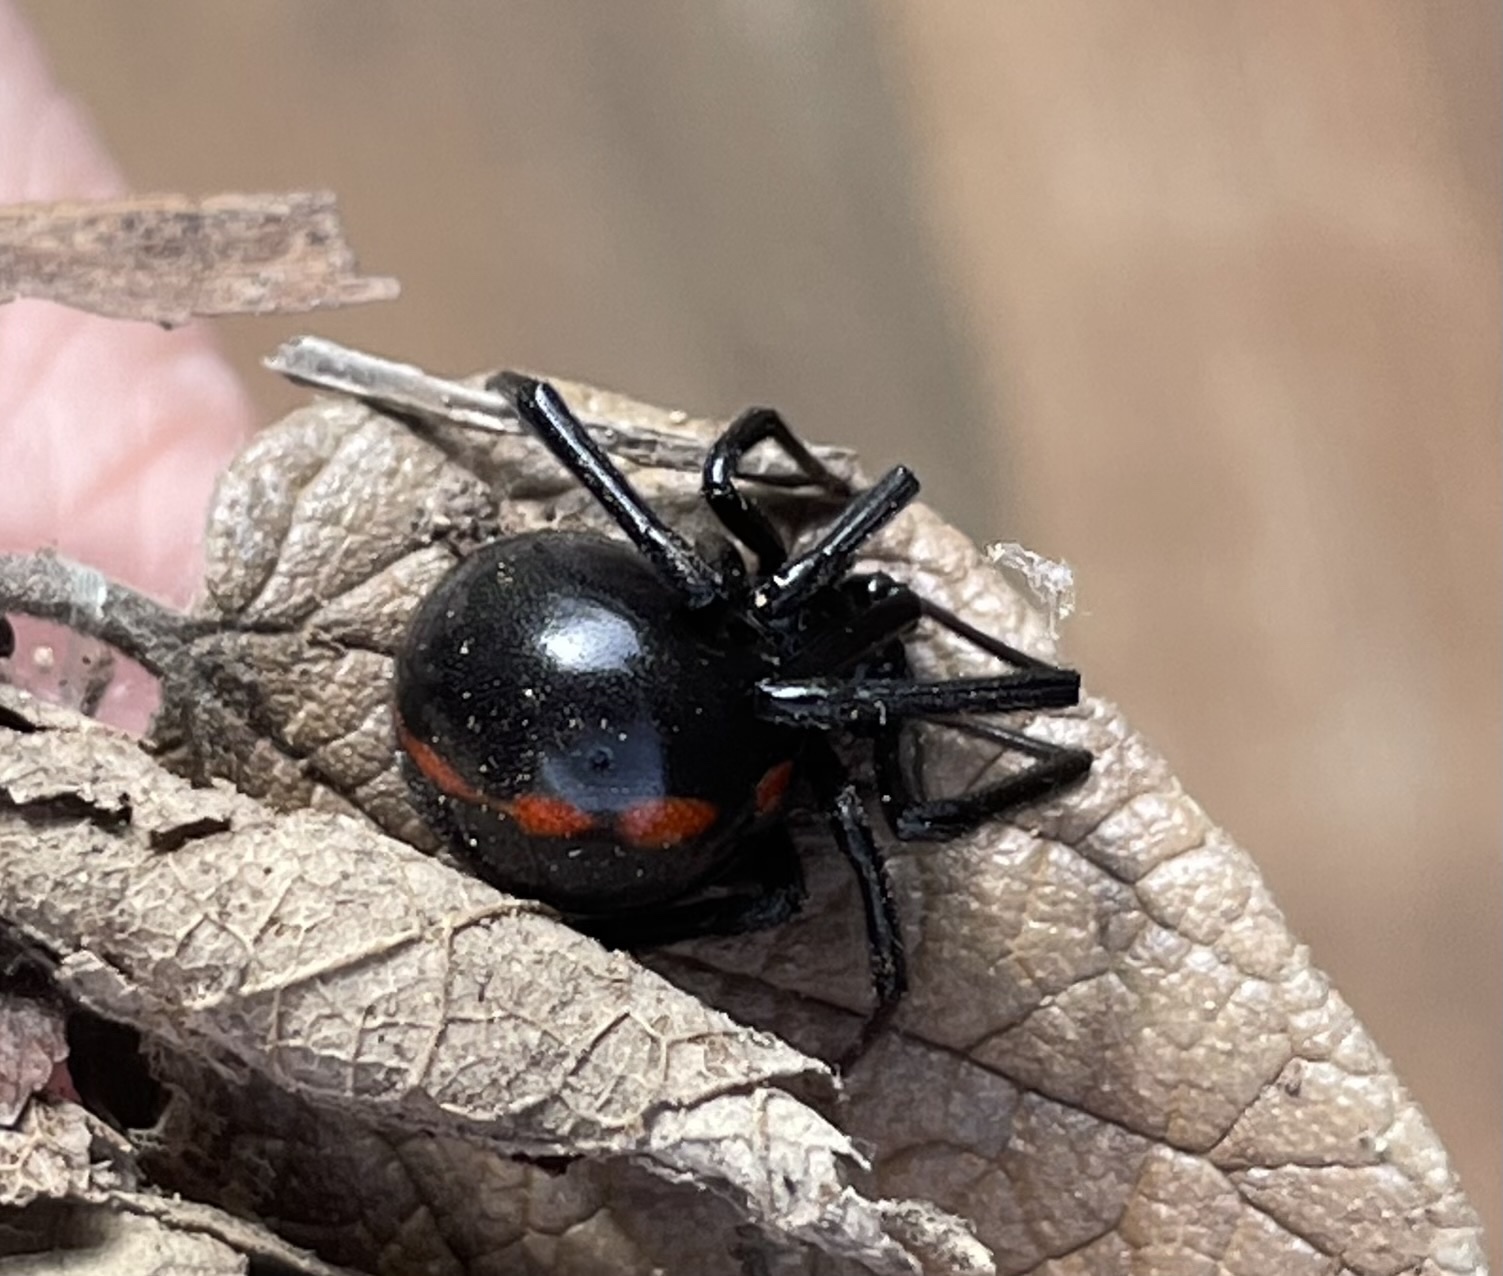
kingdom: Animalia
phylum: Arthropoda
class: Arachnida
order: Araneae
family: Theridiidae
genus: Latrodectus
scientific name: Latrodectus mactans
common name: Cobweb spiders
